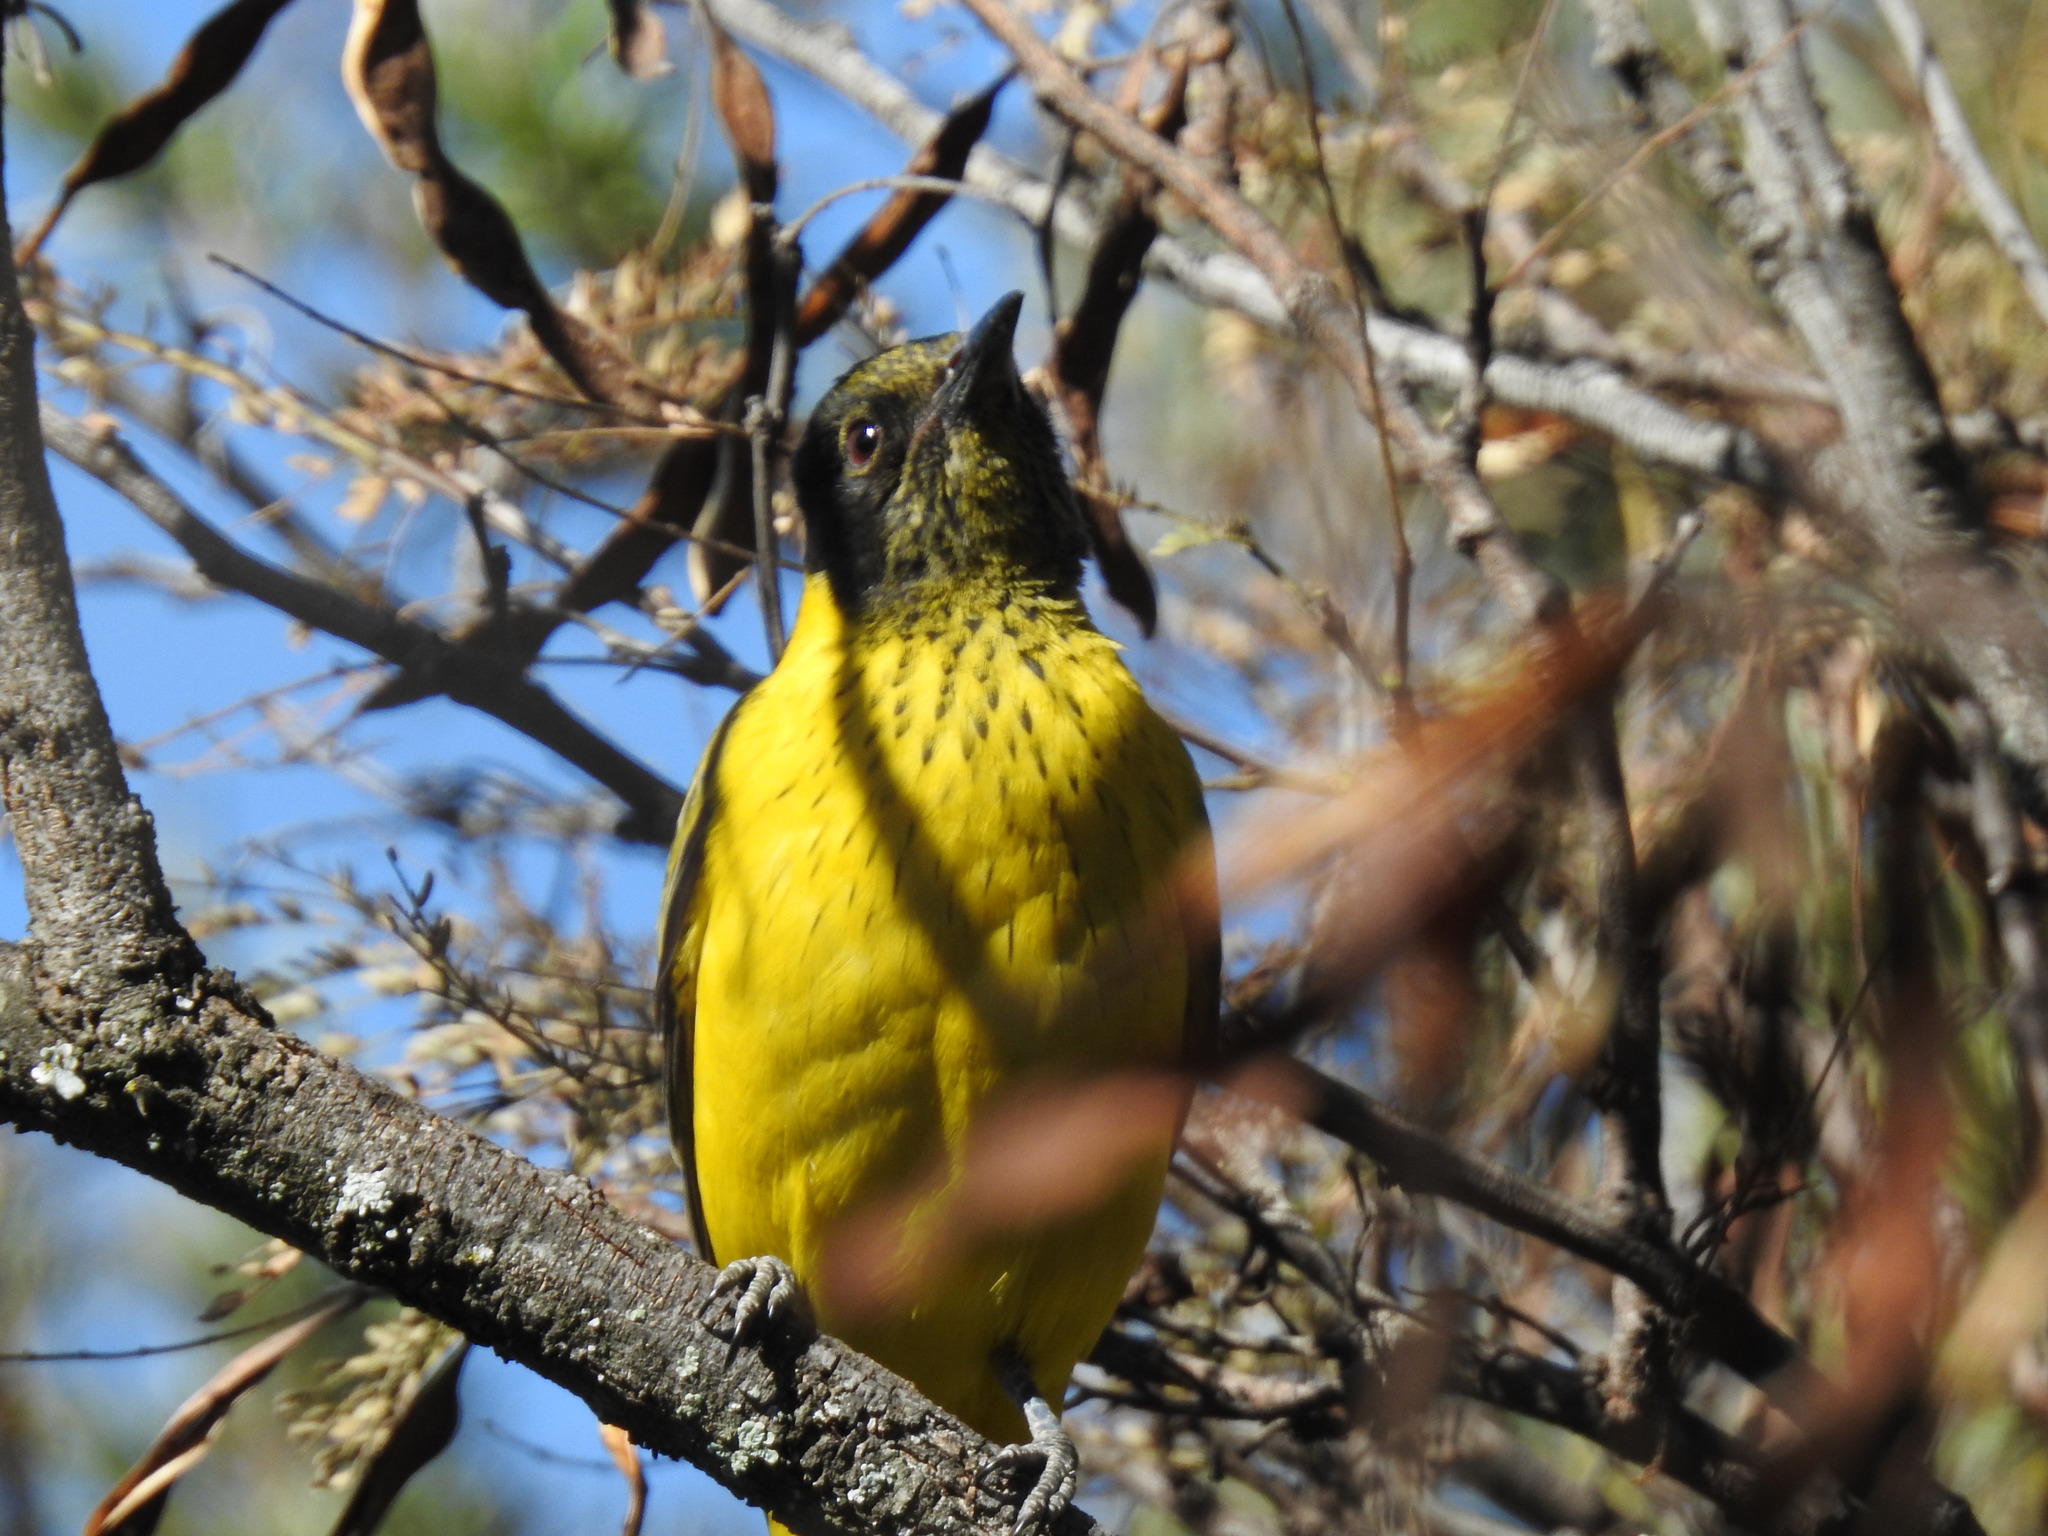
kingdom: Animalia
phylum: Chordata
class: Aves
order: Passeriformes
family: Oriolidae
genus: Oriolus
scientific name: Oriolus larvatus
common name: Black-headed oriole
